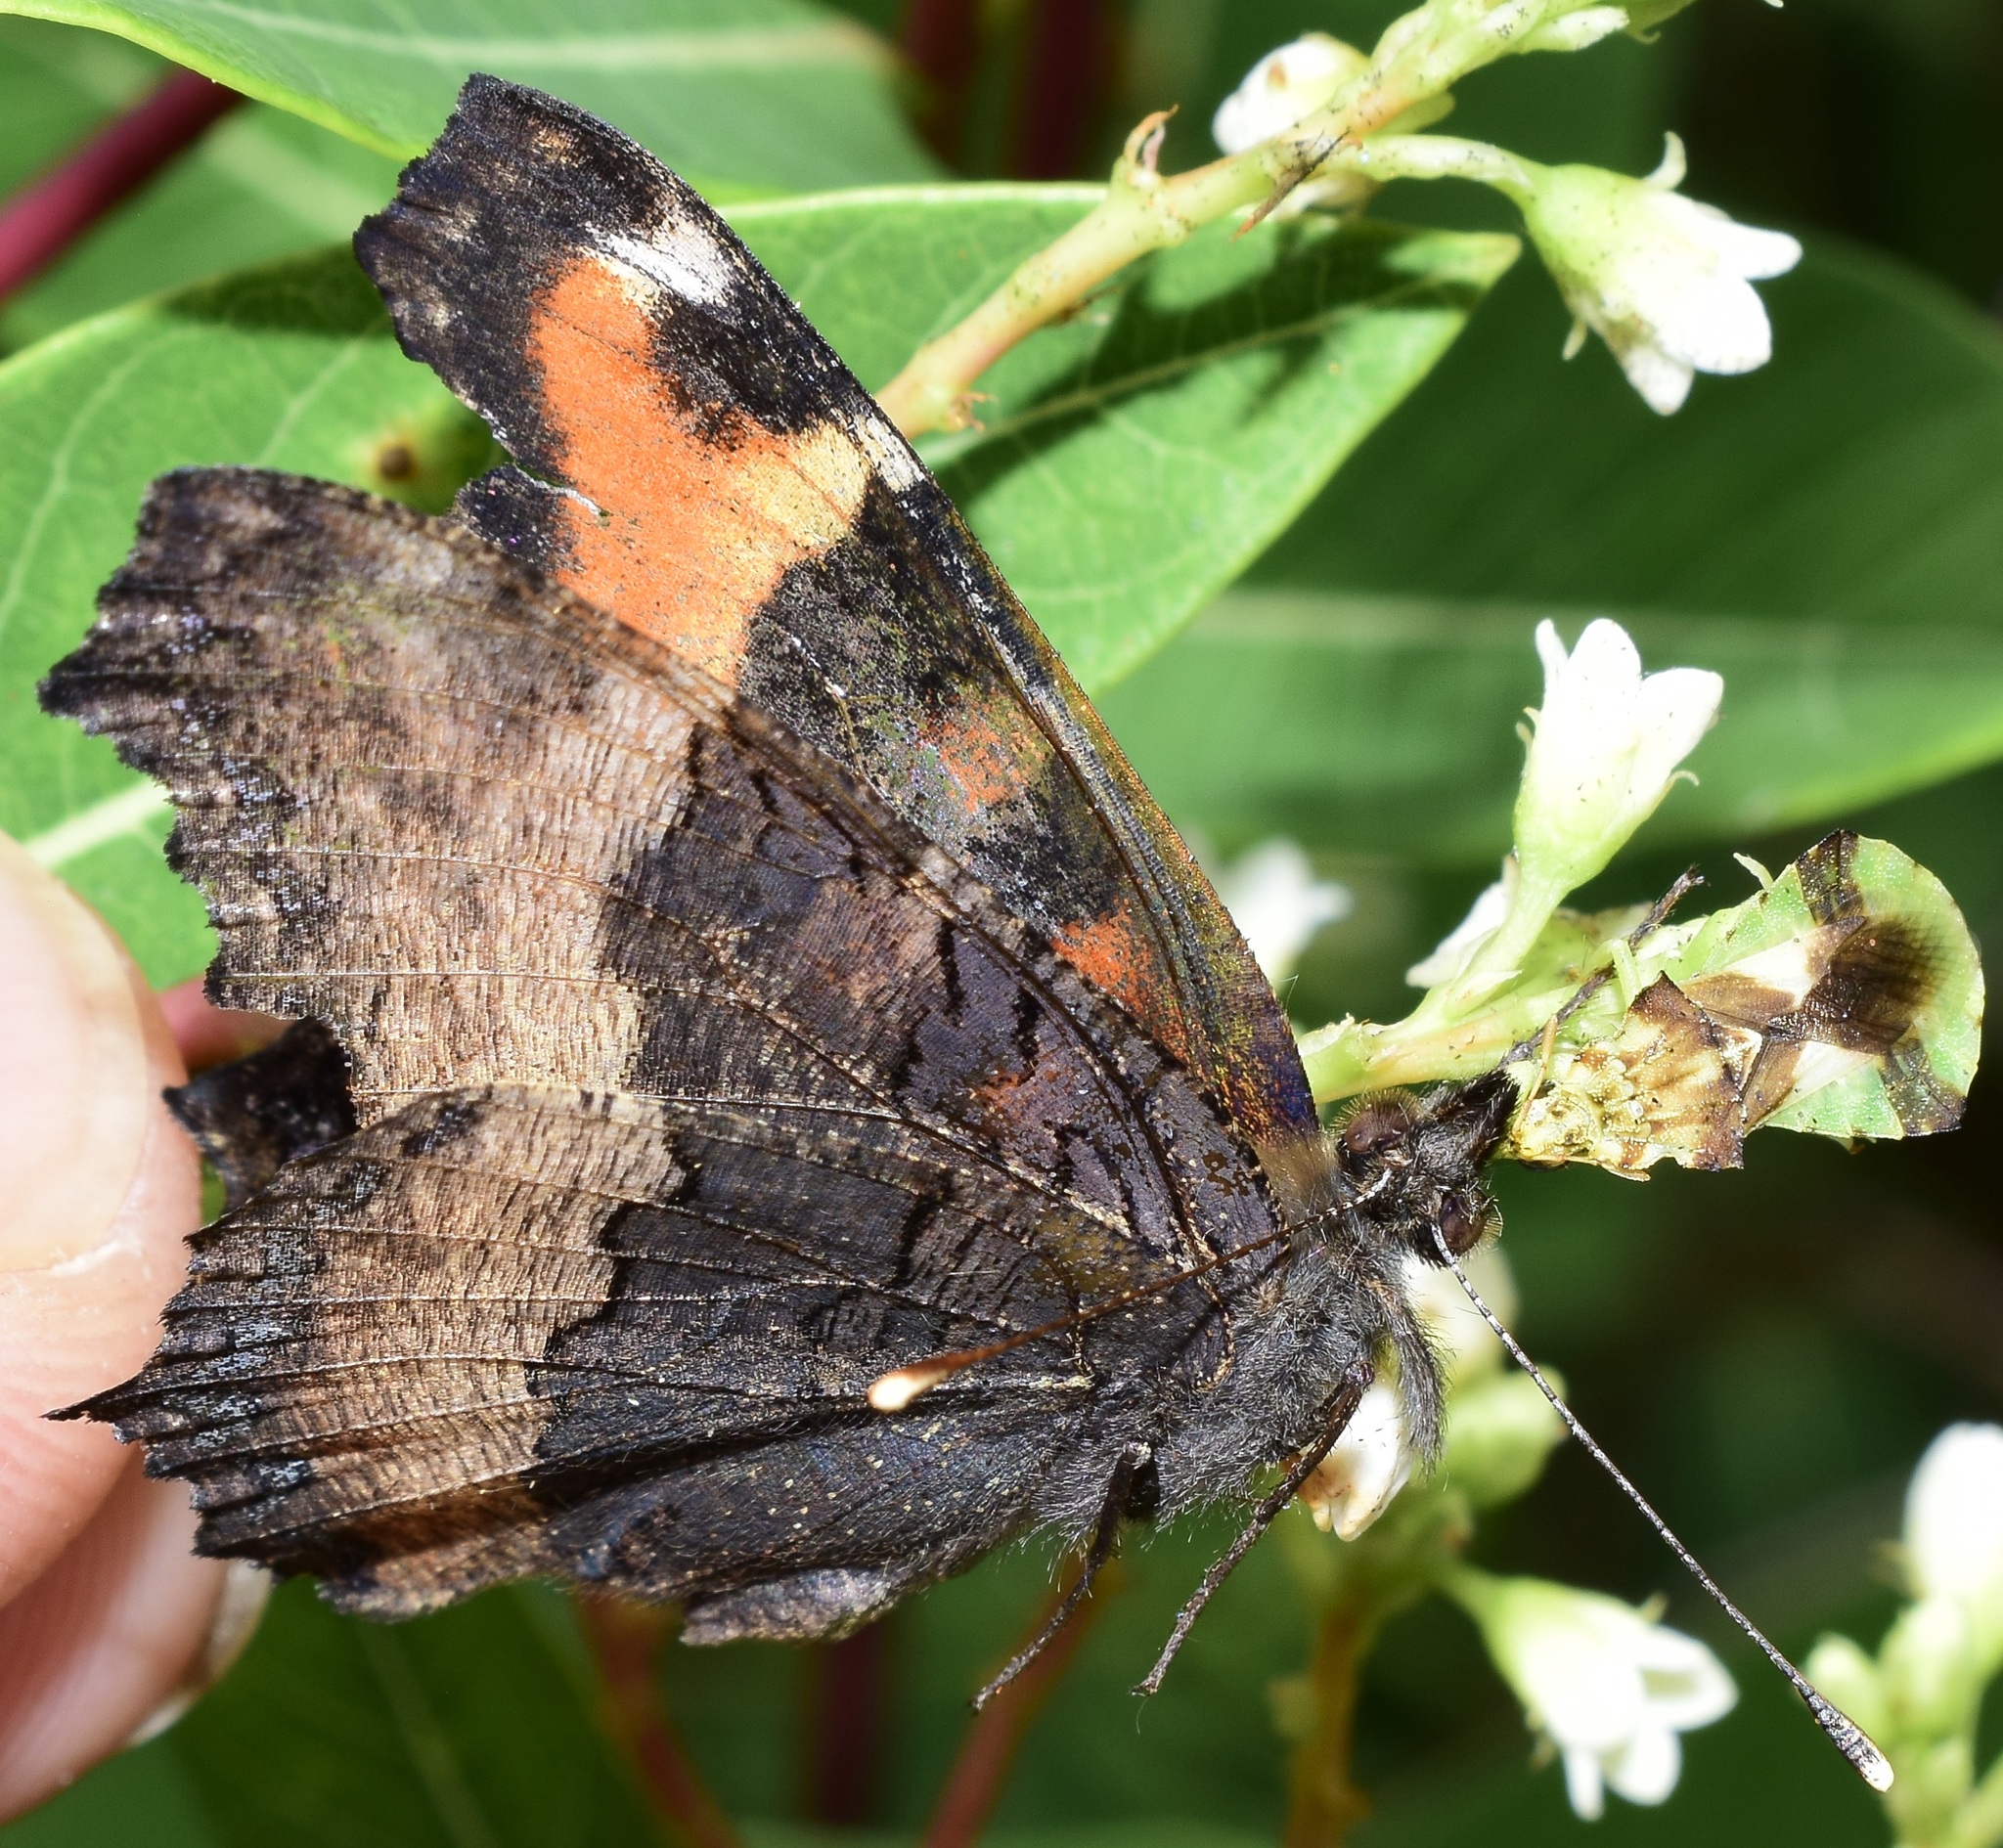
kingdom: Animalia
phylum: Arthropoda
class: Insecta
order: Lepidoptera
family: Nymphalidae
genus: Aglais
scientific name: Aglais milberti
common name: Milbert's tortoiseshell
